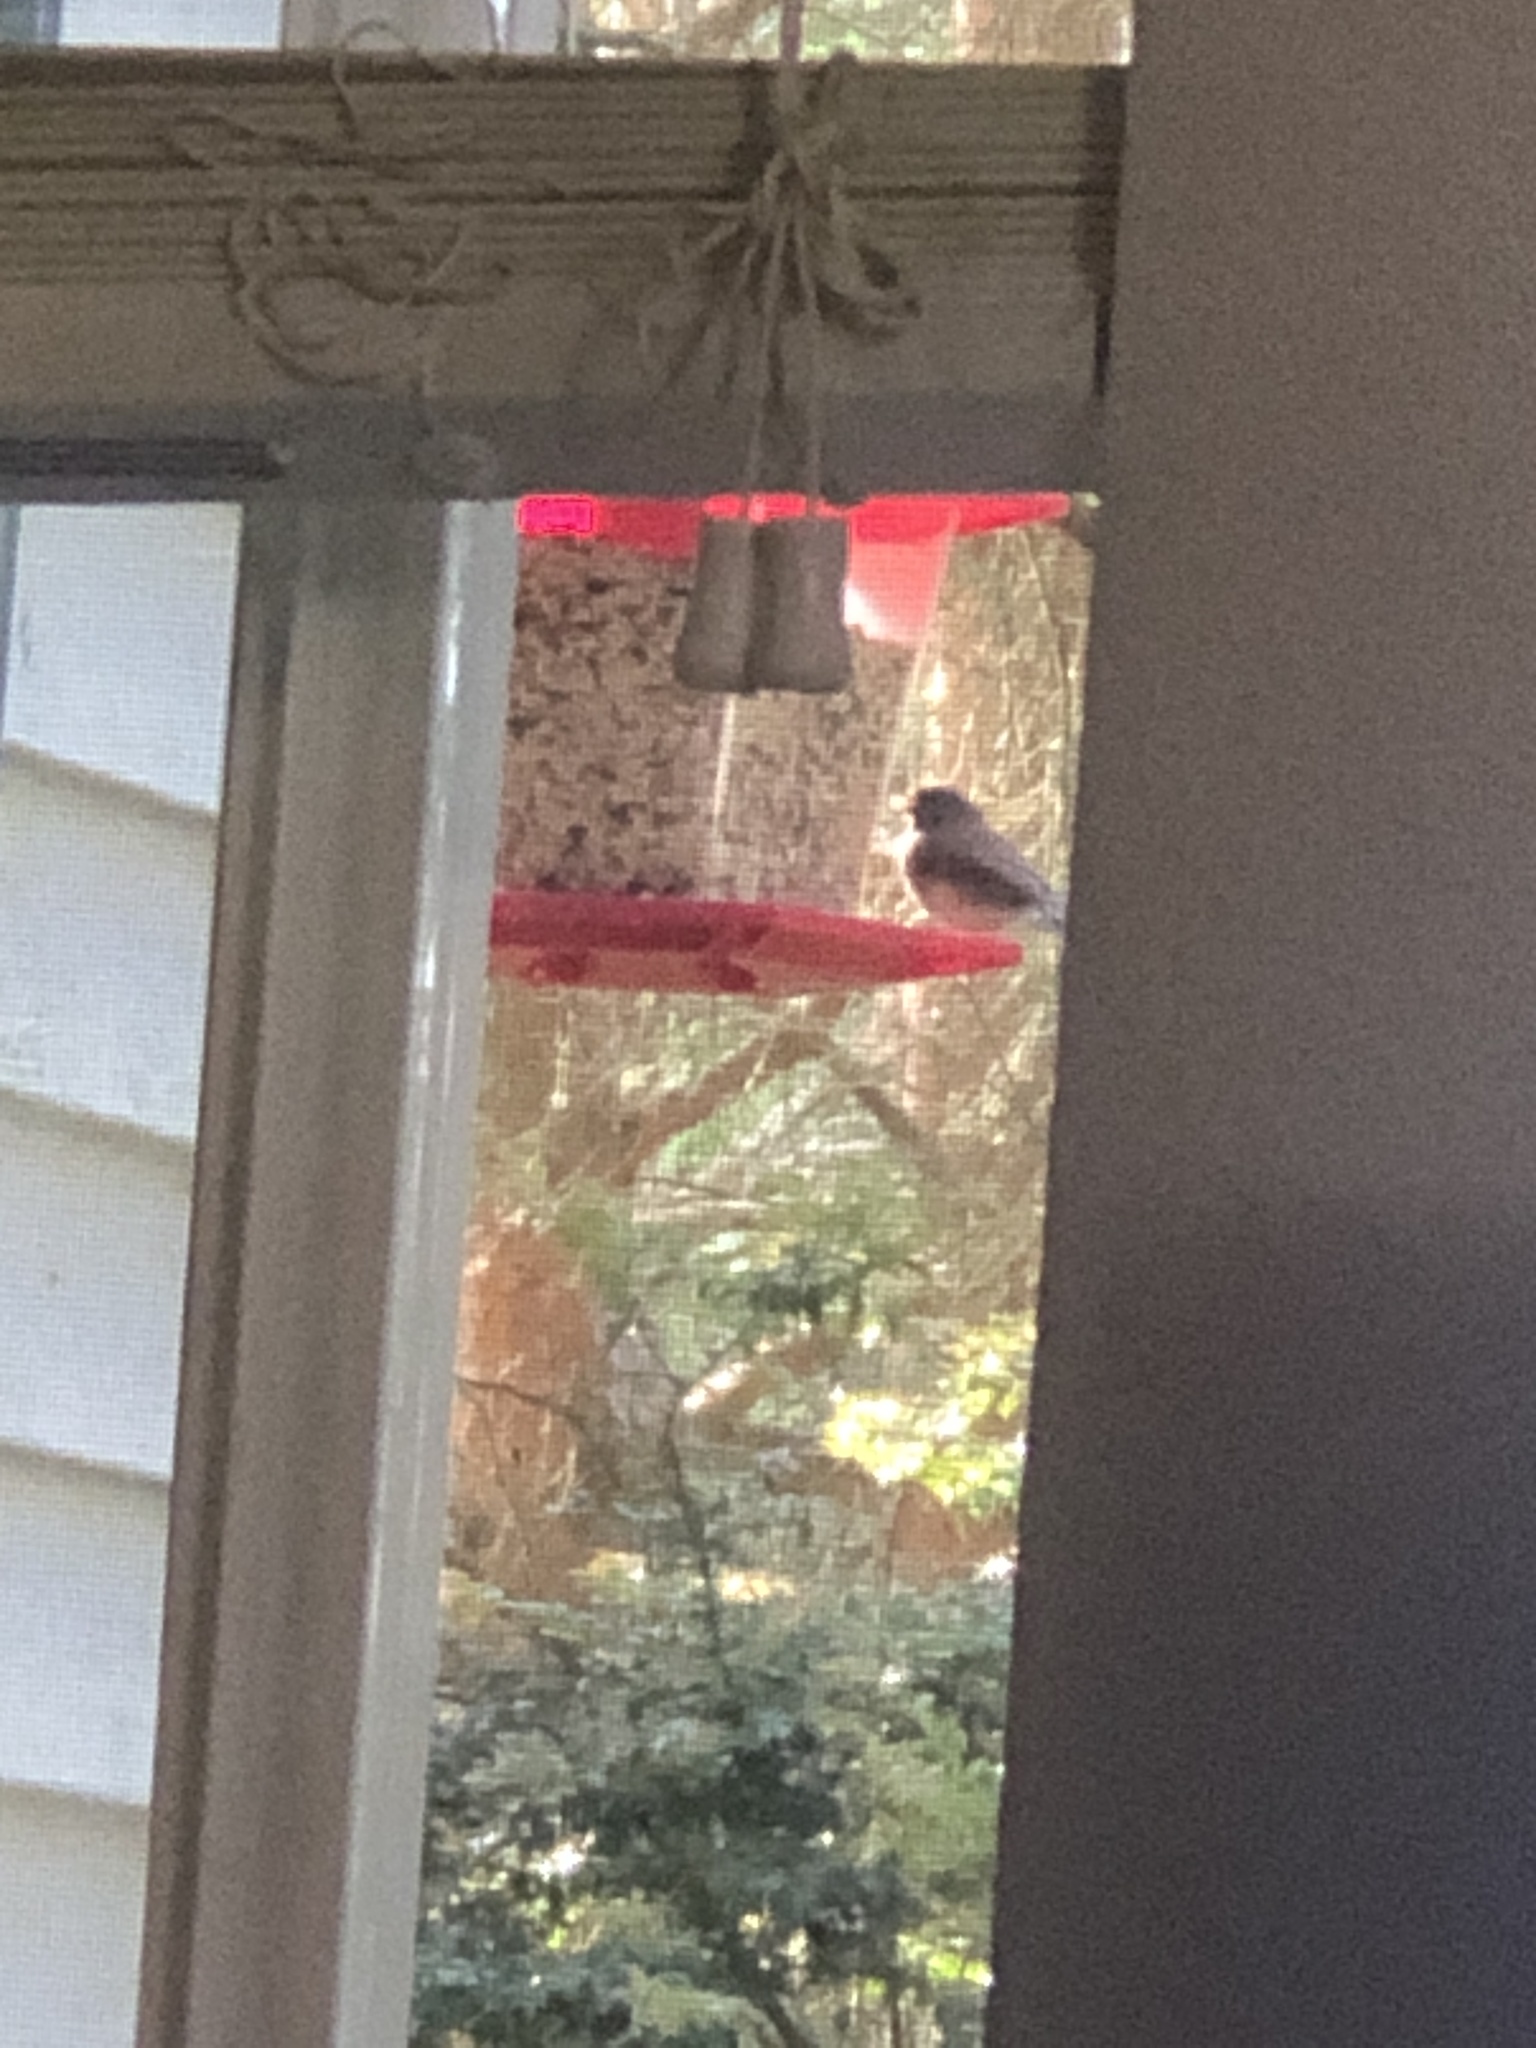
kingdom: Animalia
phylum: Chordata
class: Aves
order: Passeriformes
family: Passerellidae
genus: Junco
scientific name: Junco hyemalis
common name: Dark-eyed junco
